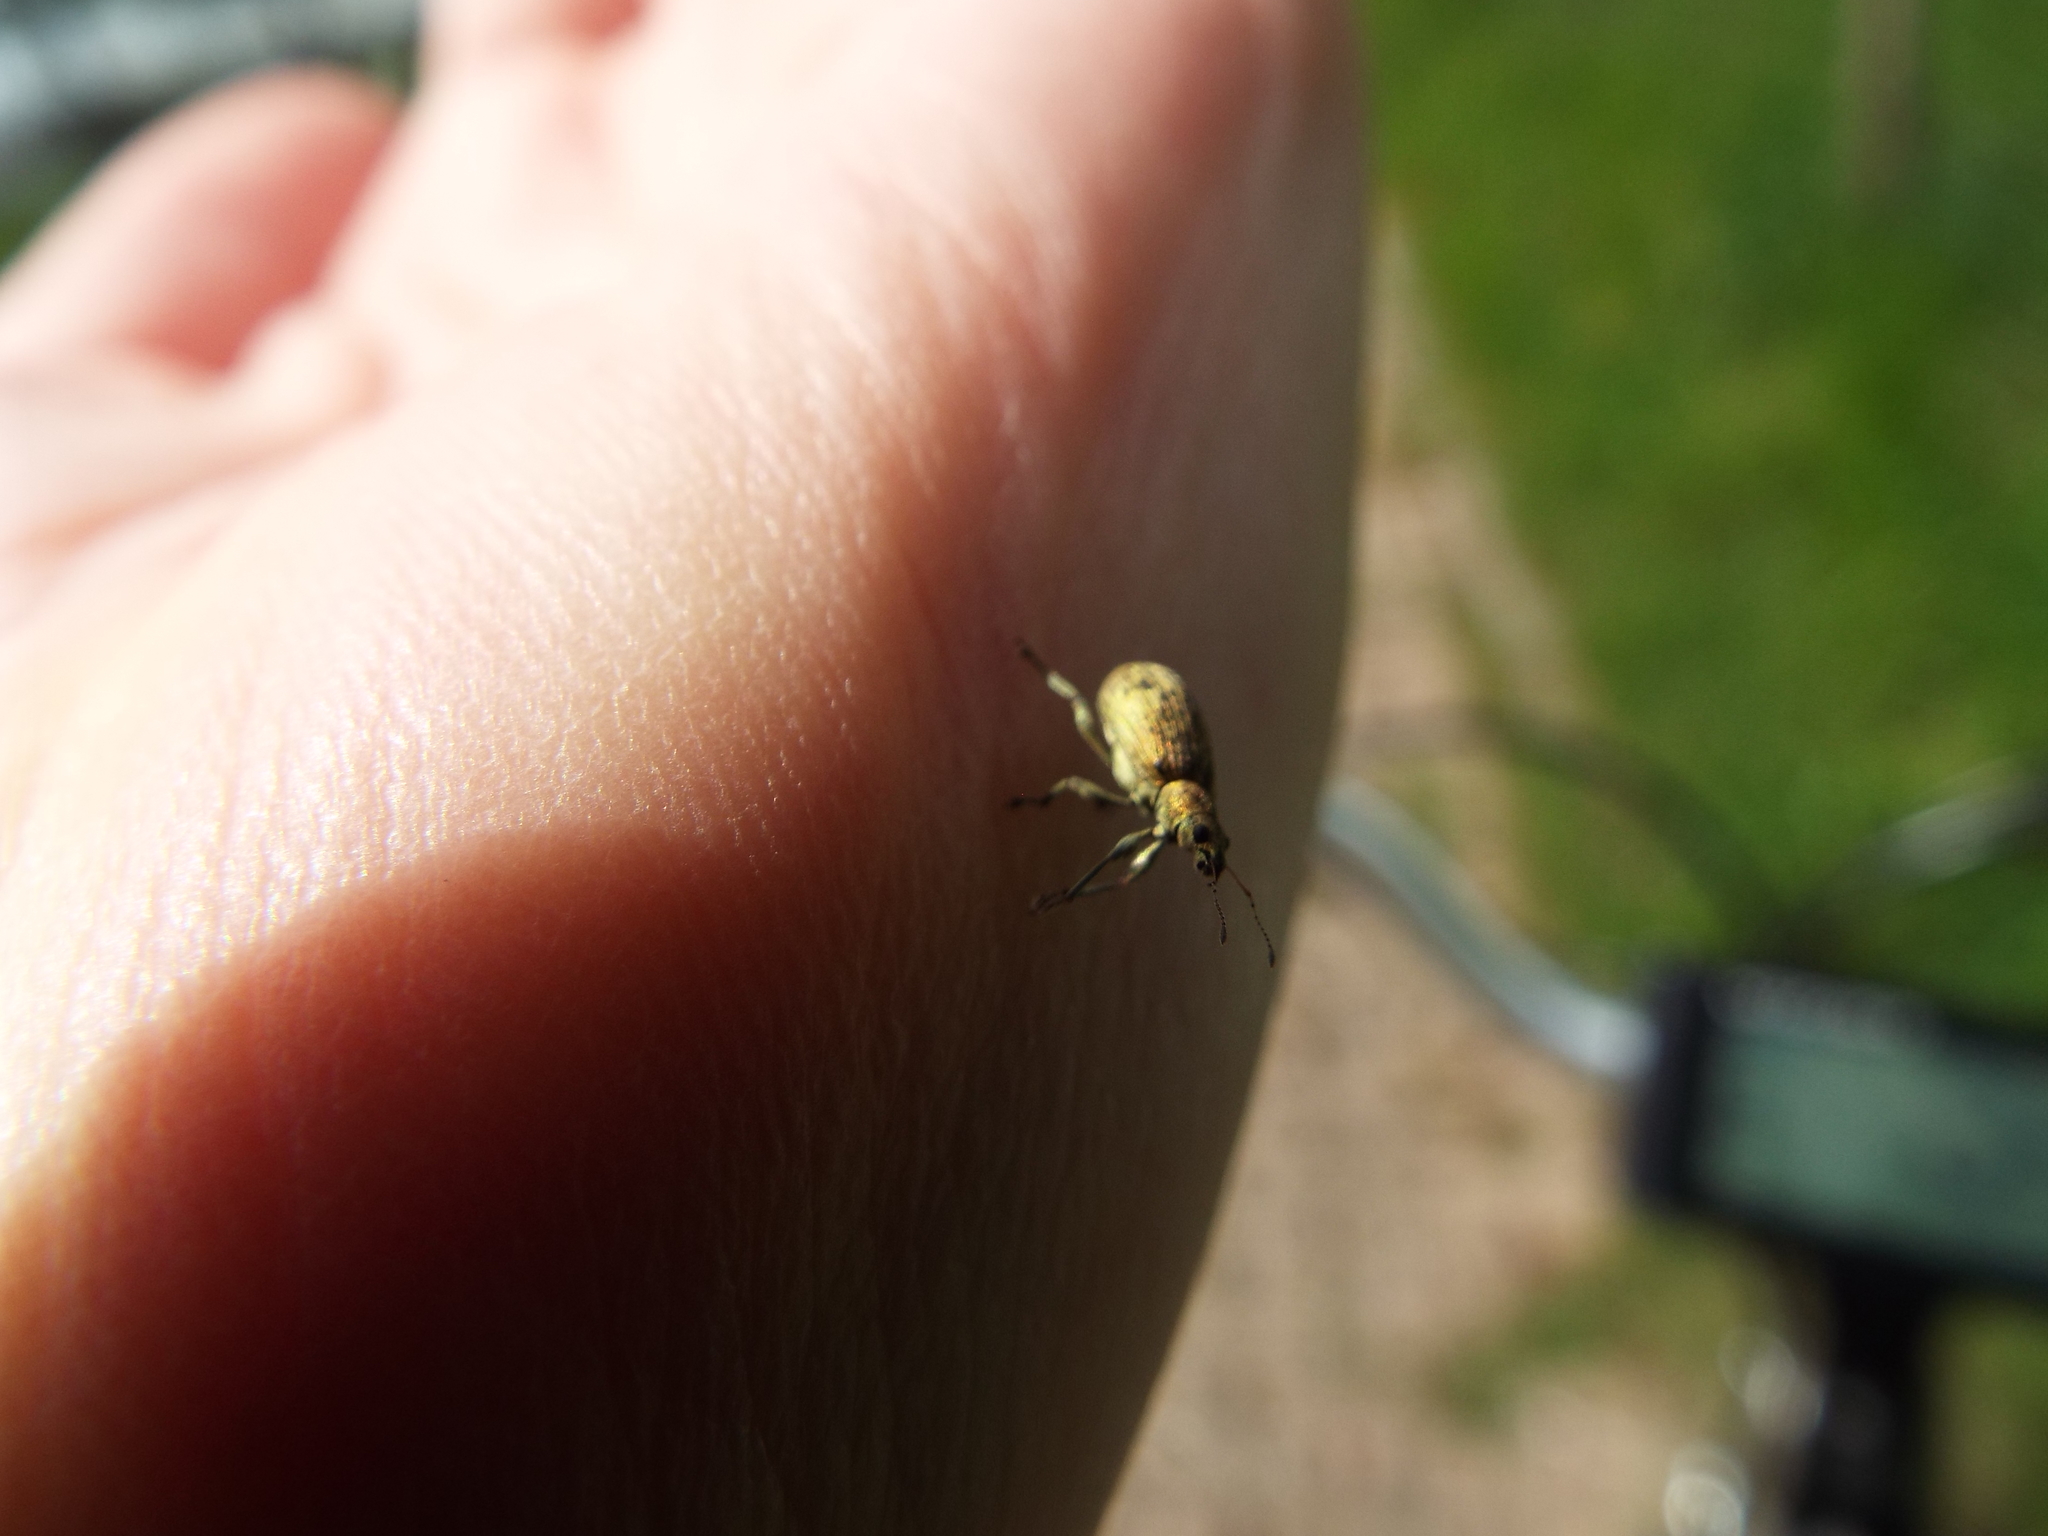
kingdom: Animalia
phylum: Arthropoda
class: Insecta
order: Coleoptera
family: Curculionidae
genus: Polydrusus
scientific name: Polydrusus cervinus
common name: Weevil
